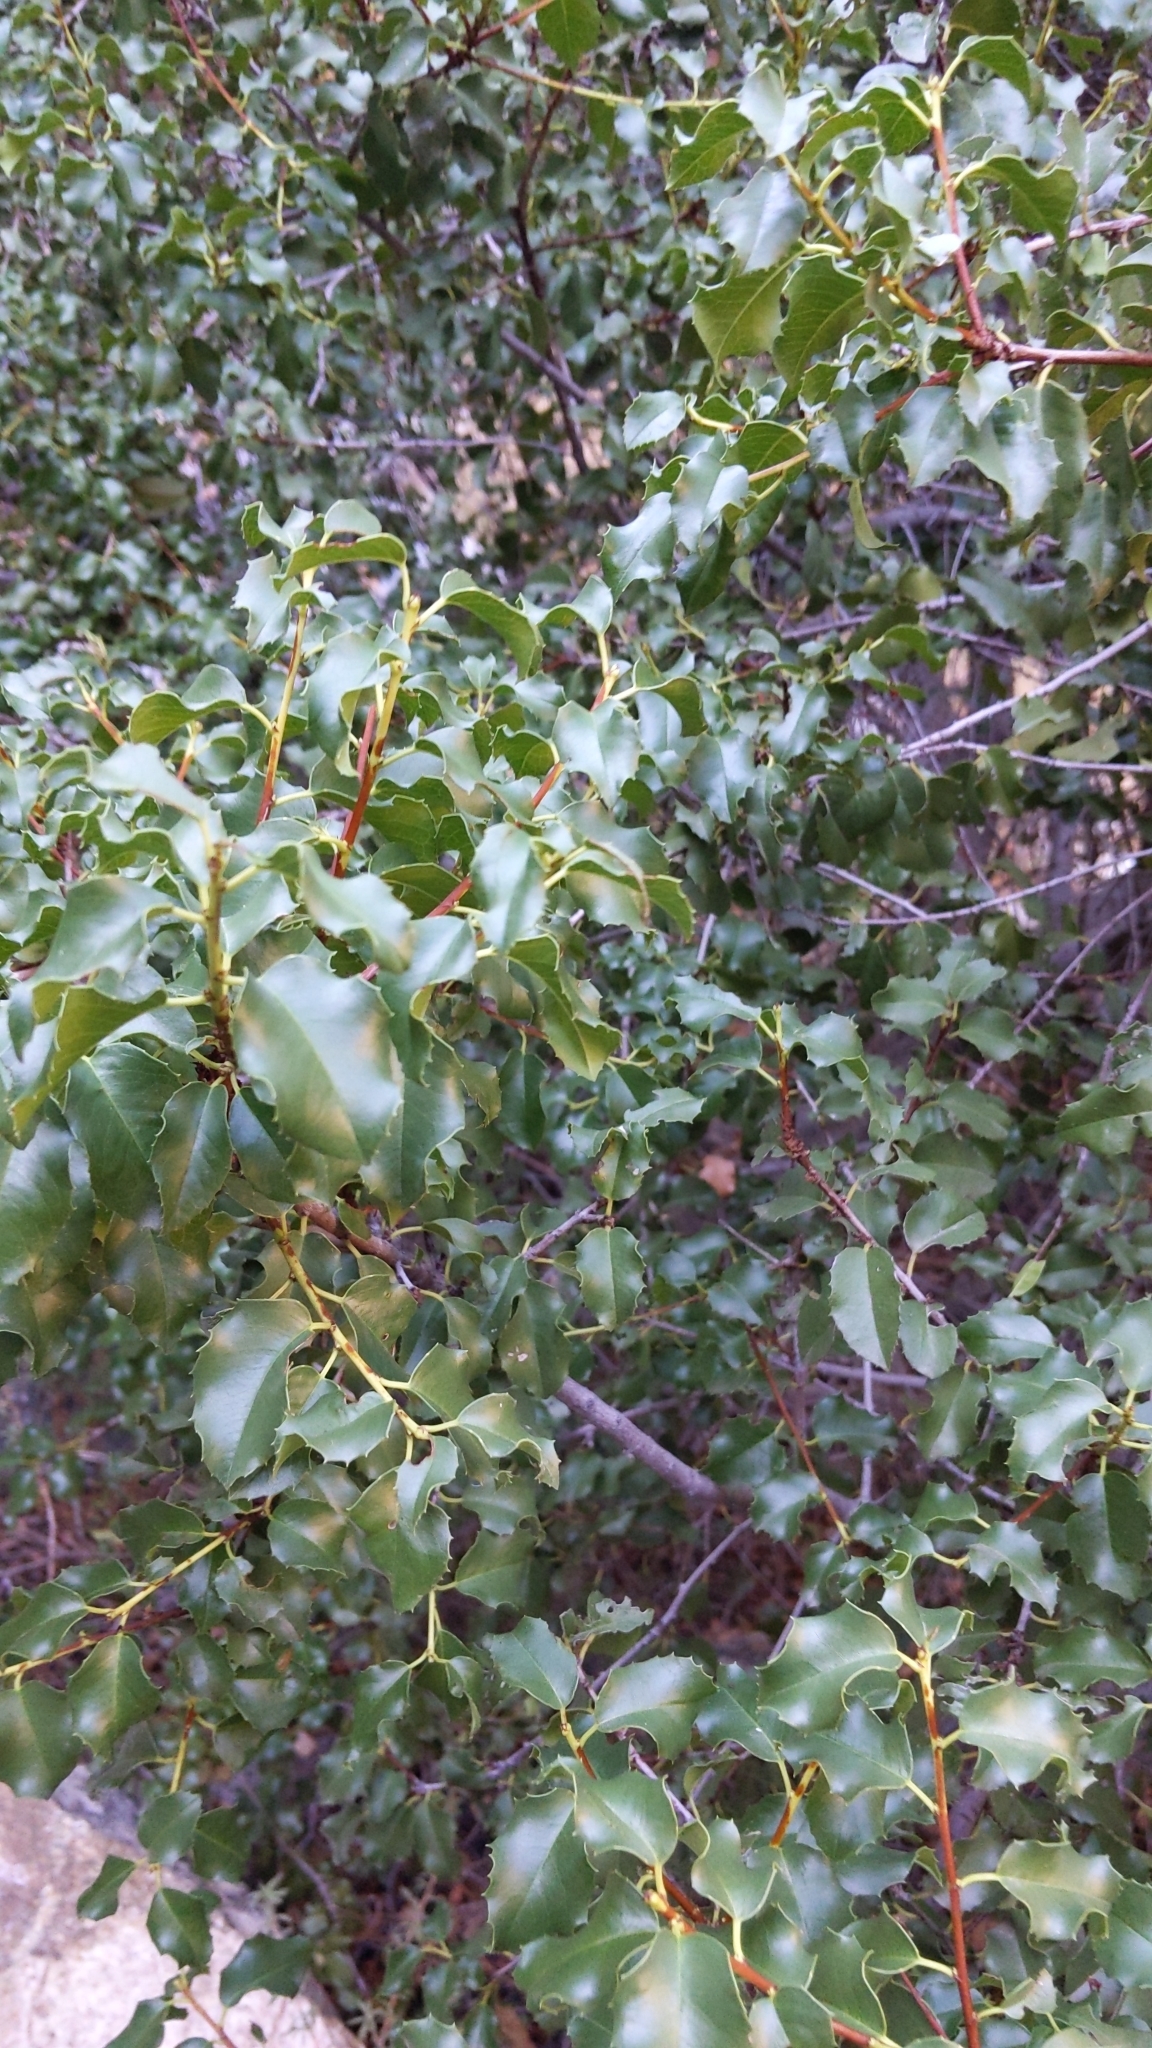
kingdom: Plantae
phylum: Tracheophyta
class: Magnoliopsida
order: Rosales
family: Rosaceae
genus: Prunus
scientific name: Prunus ilicifolia
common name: Hollyleaf cherry
